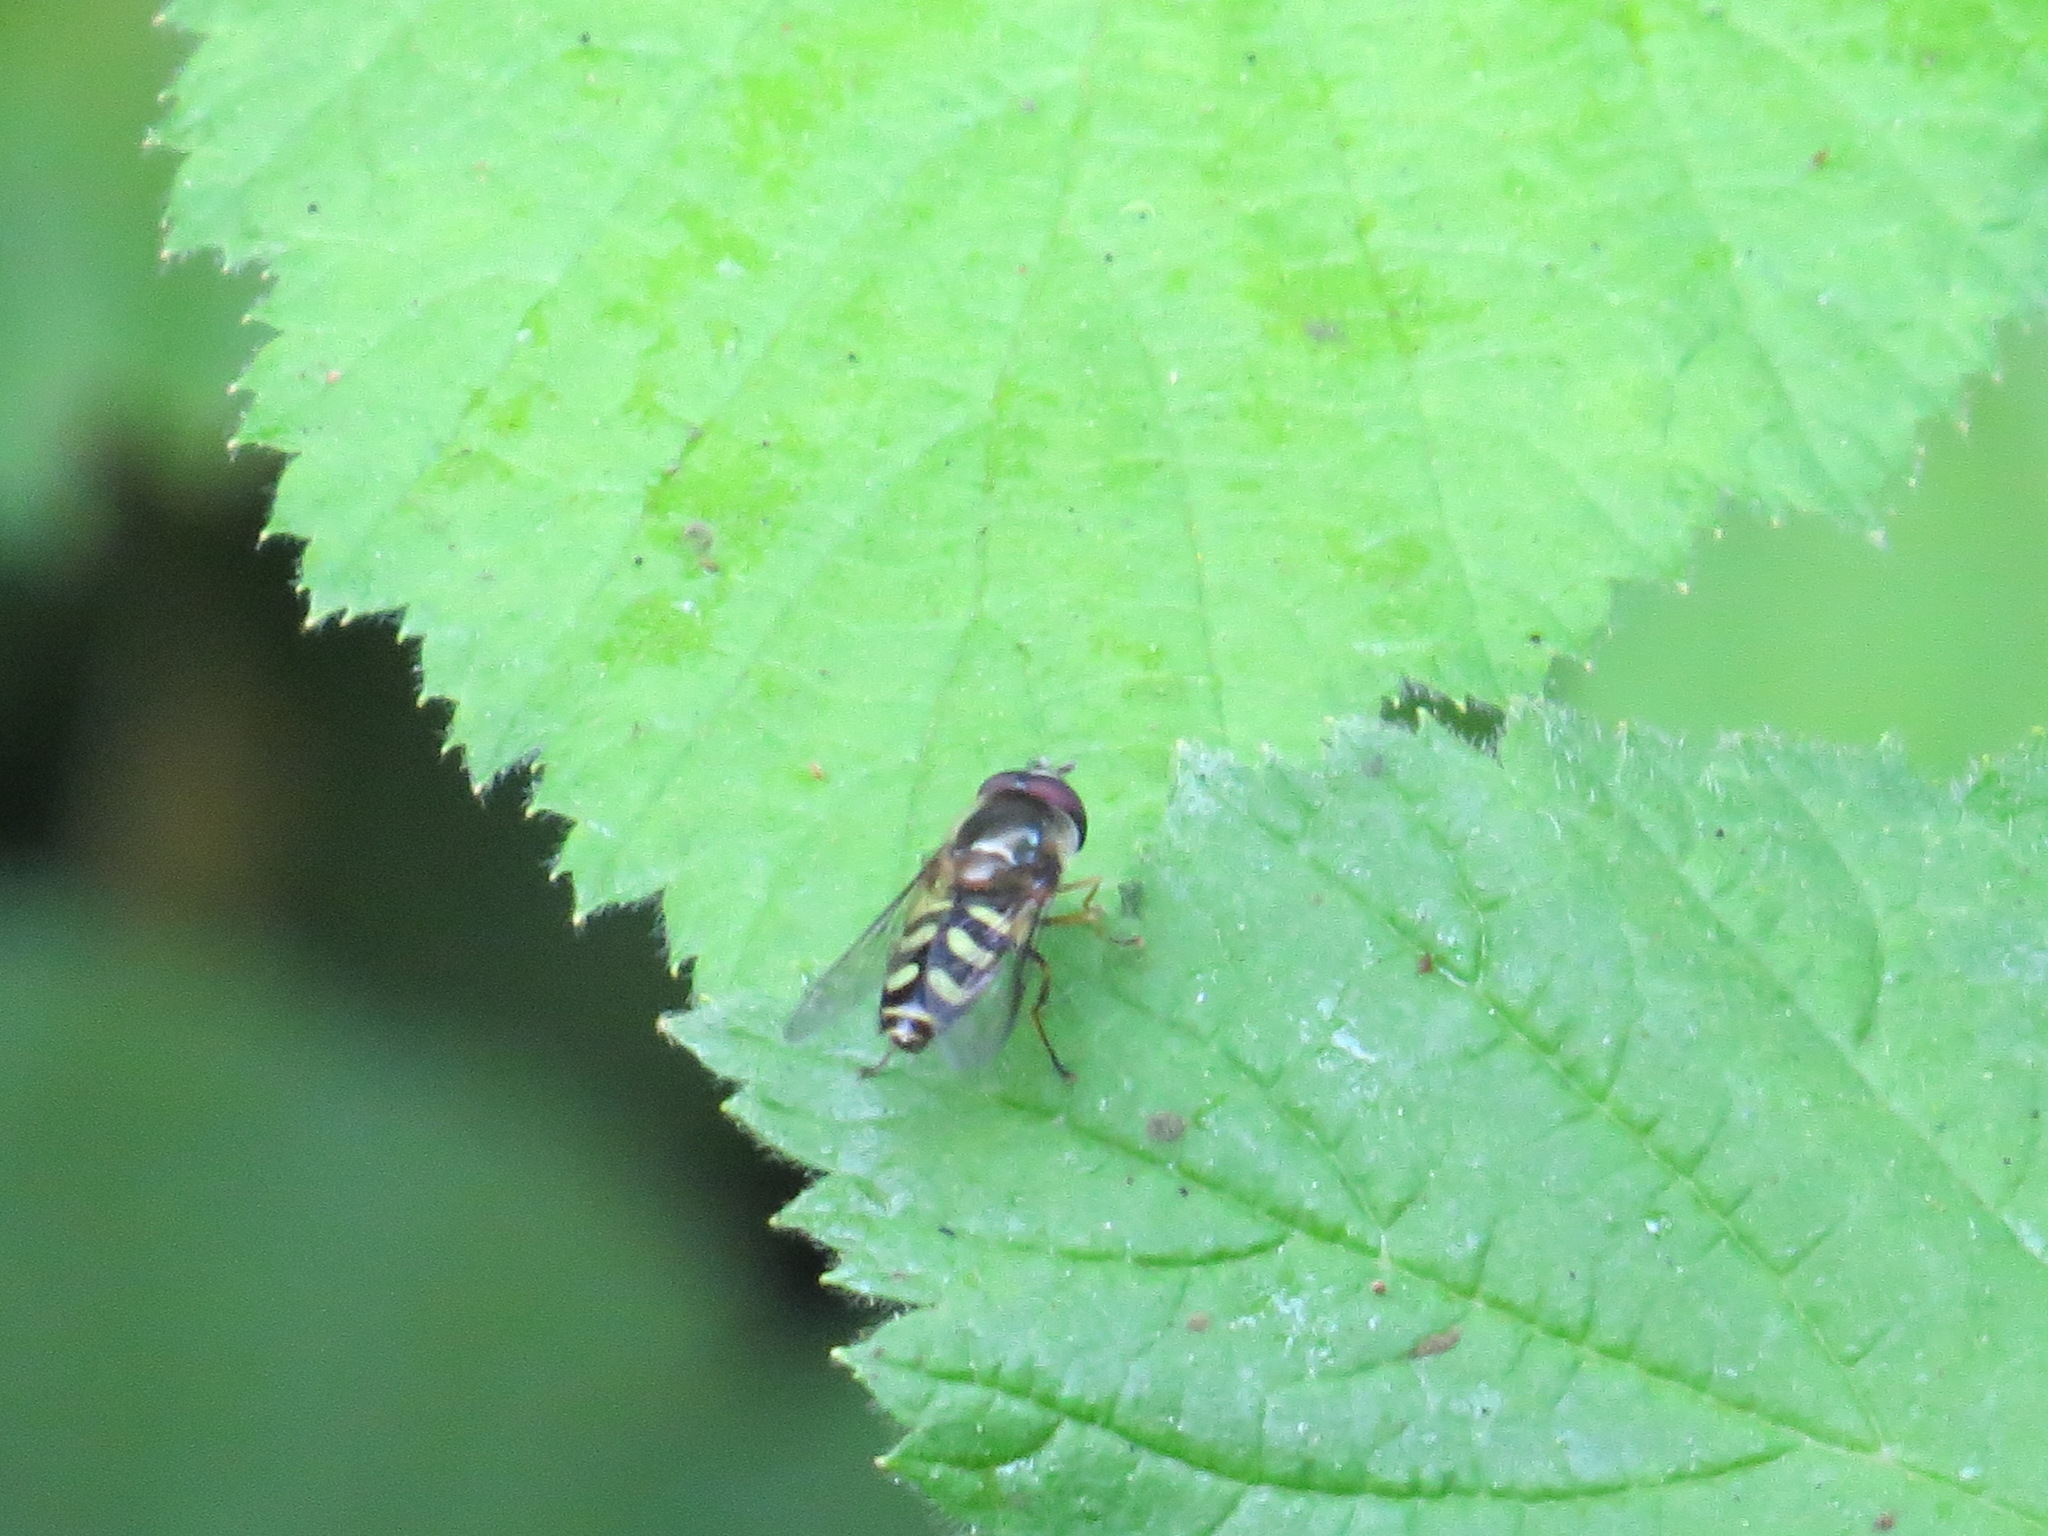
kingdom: Animalia
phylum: Arthropoda
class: Insecta
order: Diptera
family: Syrphidae
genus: Lapposyrphus
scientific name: Lapposyrphus lapponicus
